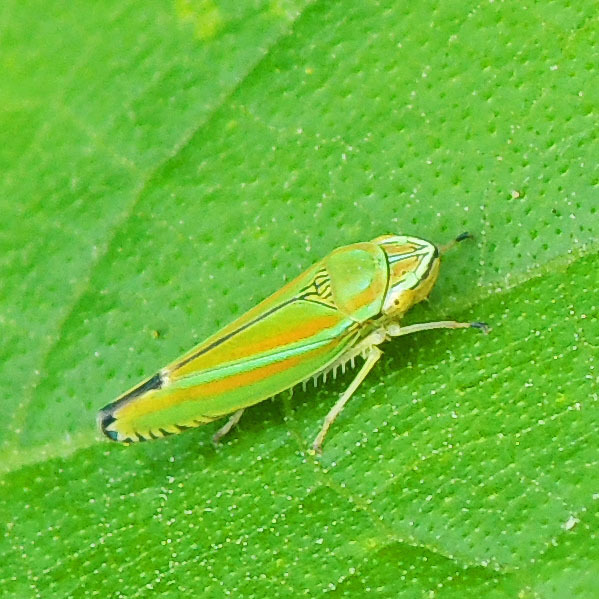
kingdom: Animalia
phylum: Arthropoda
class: Insecta
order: Hemiptera
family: Cicadellidae
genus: Graphocephala
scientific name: Graphocephala versuta
